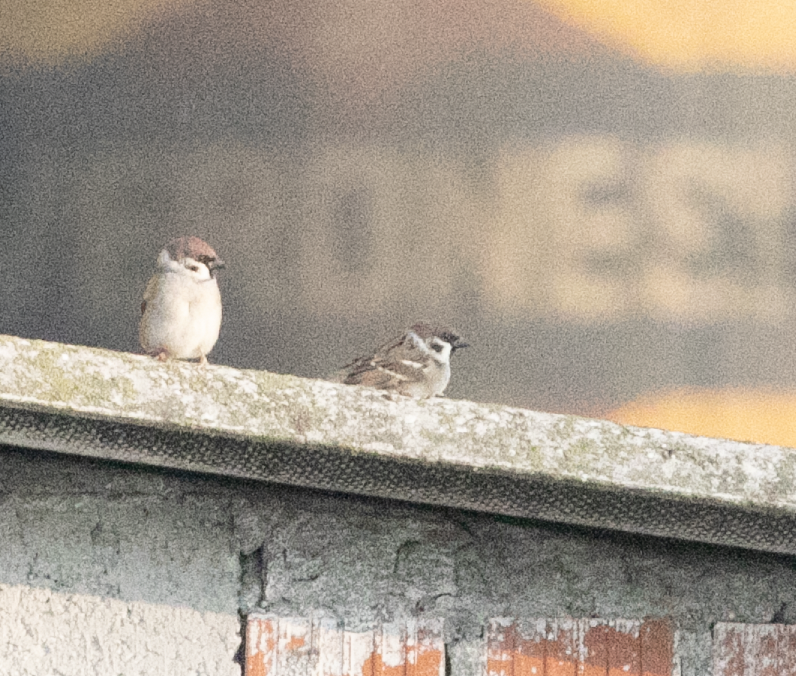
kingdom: Animalia
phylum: Chordata
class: Aves
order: Passeriformes
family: Passeridae
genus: Passer
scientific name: Passer montanus
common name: Eurasian tree sparrow
